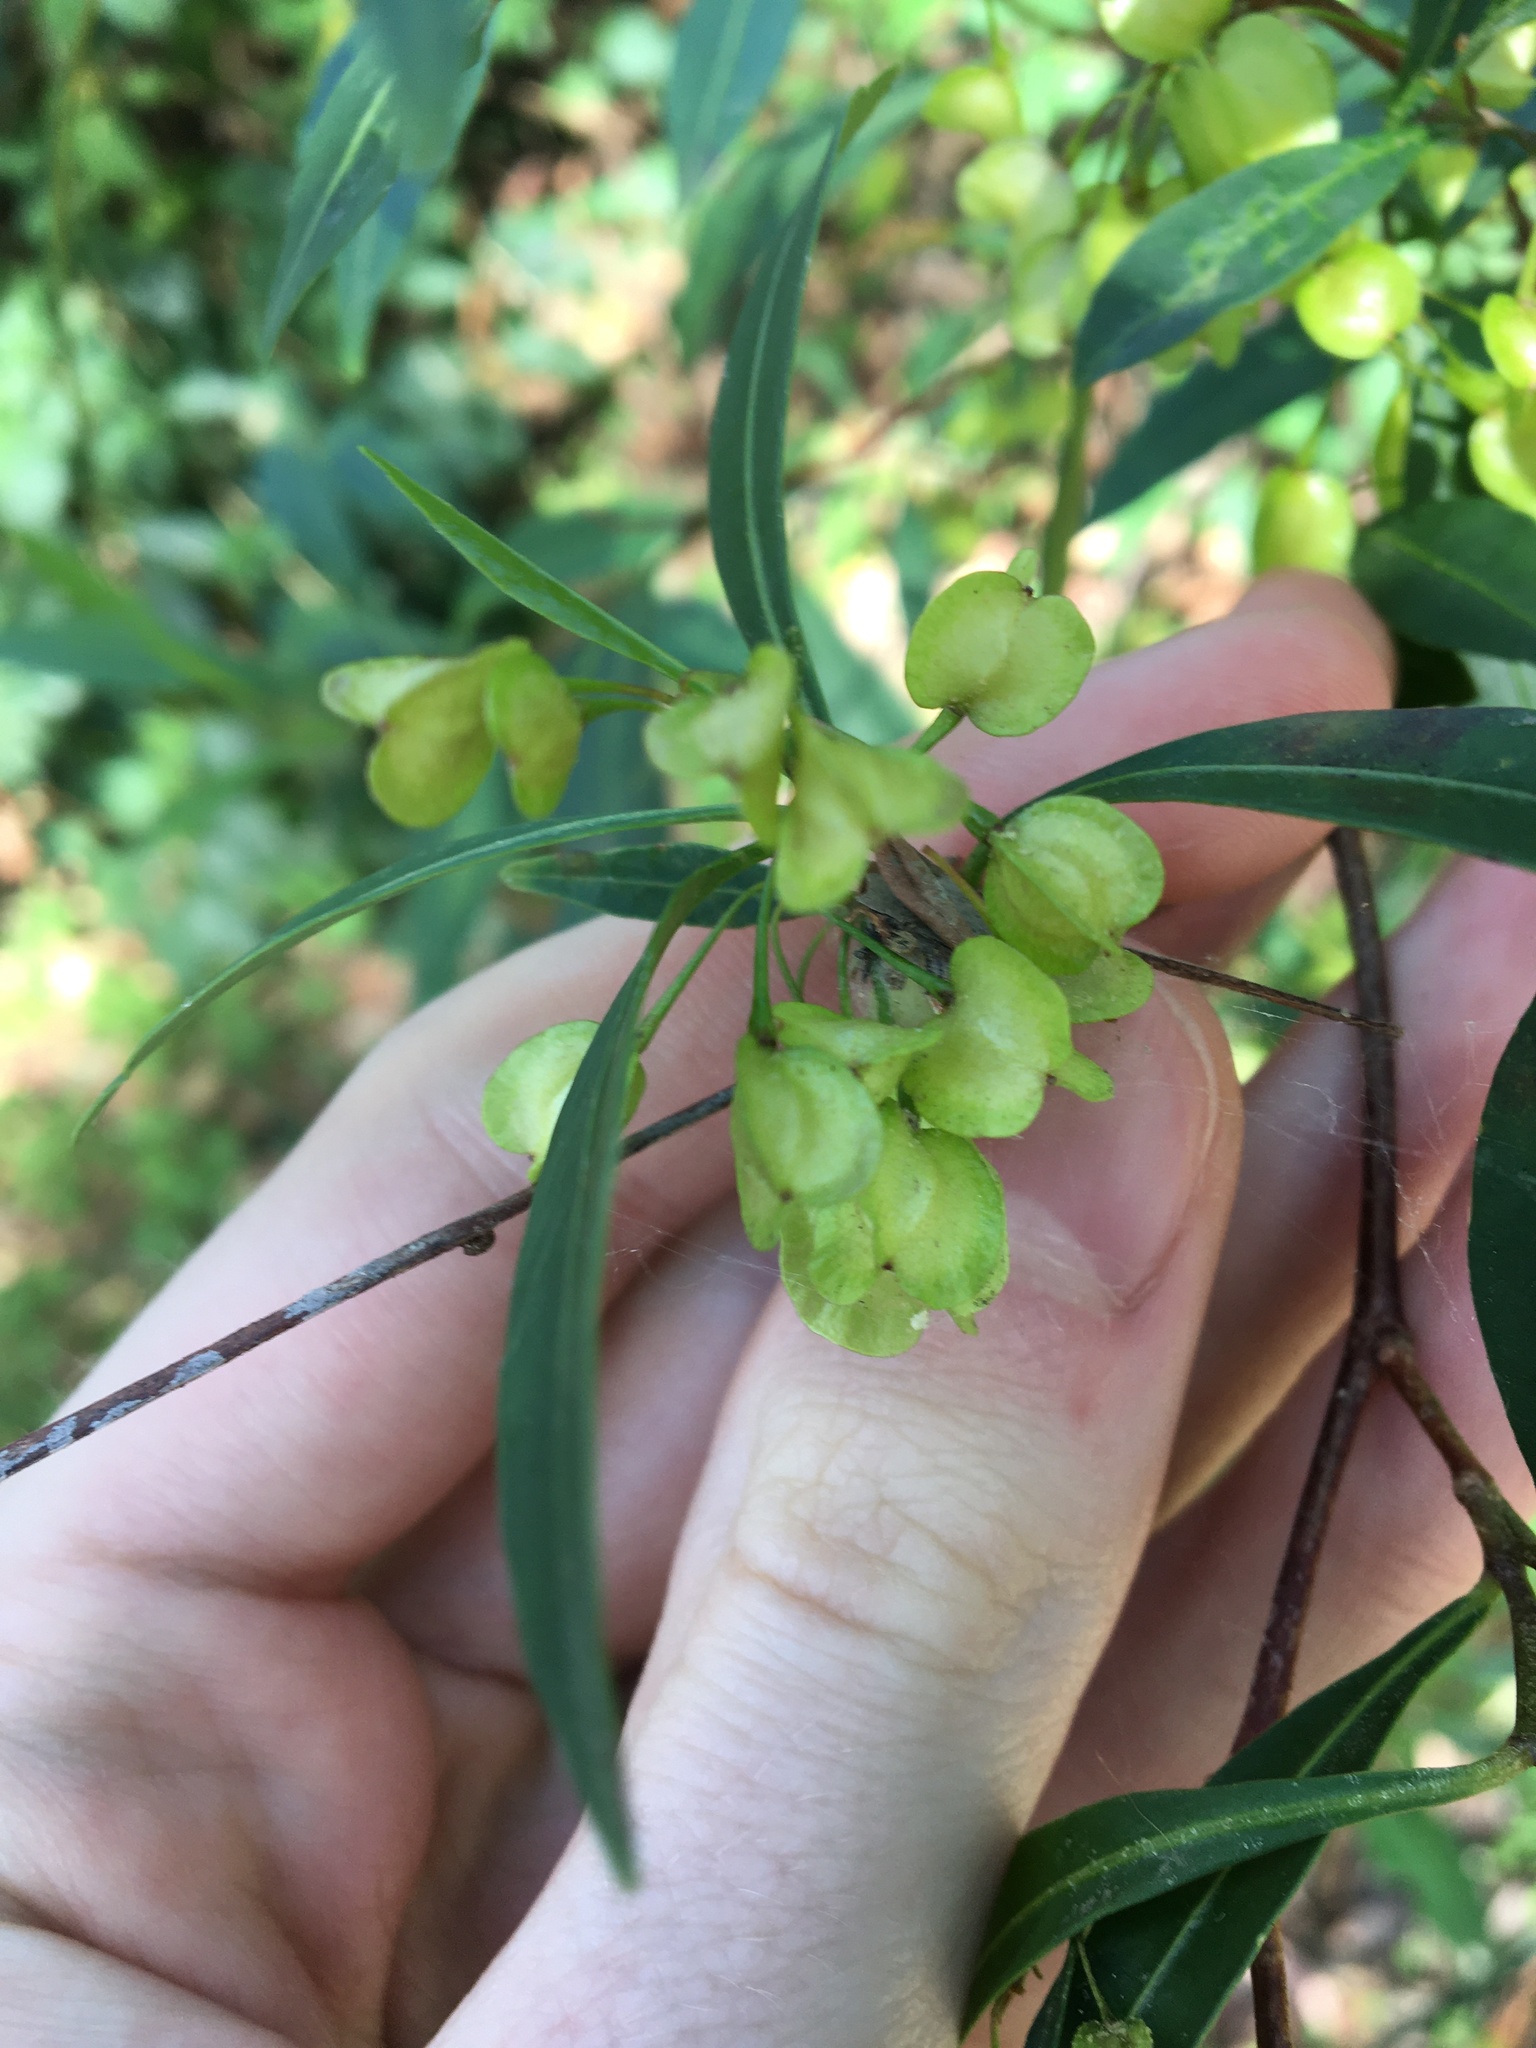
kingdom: Plantae
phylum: Tracheophyta
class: Magnoliopsida
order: Sapindales
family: Sapindaceae
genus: Dodonaea
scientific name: Dodonaea triquetra
